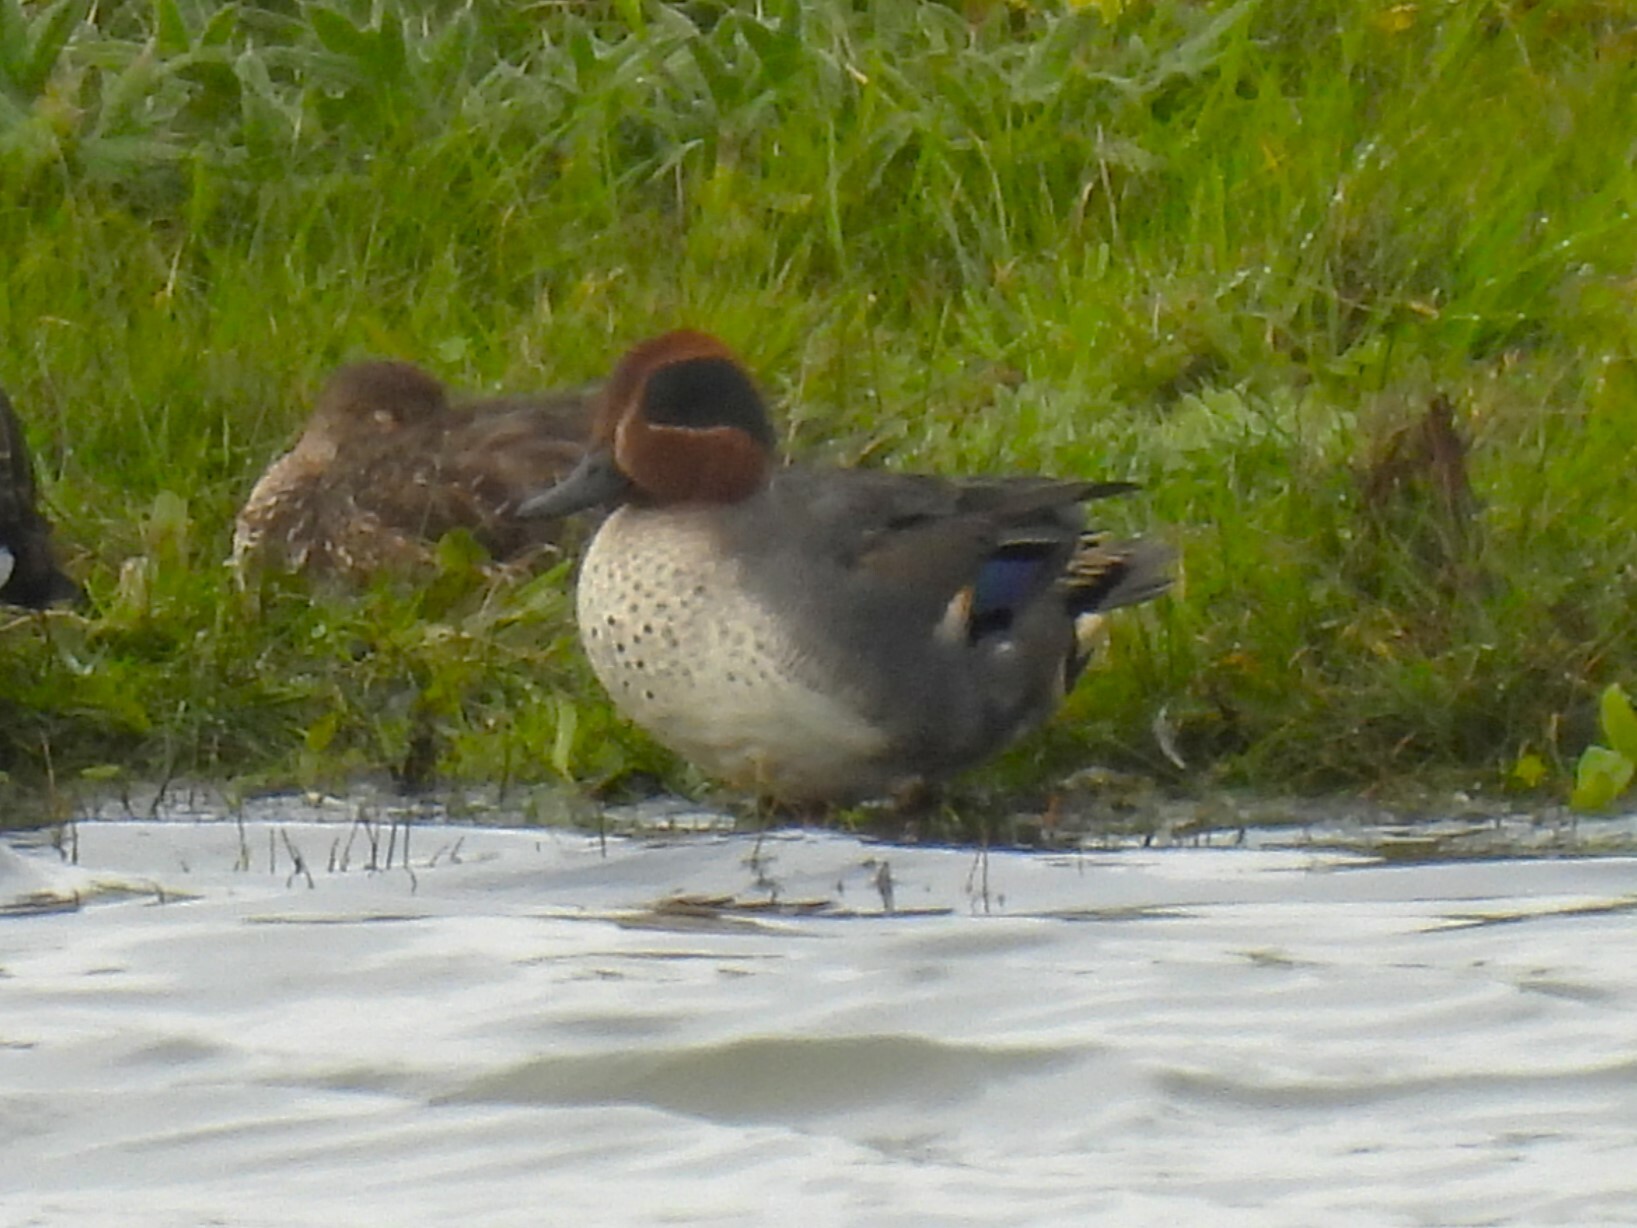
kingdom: Animalia
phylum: Chordata
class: Aves
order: Anseriformes
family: Anatidae
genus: Anas
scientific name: Anas crecca
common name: Eurasian teal
